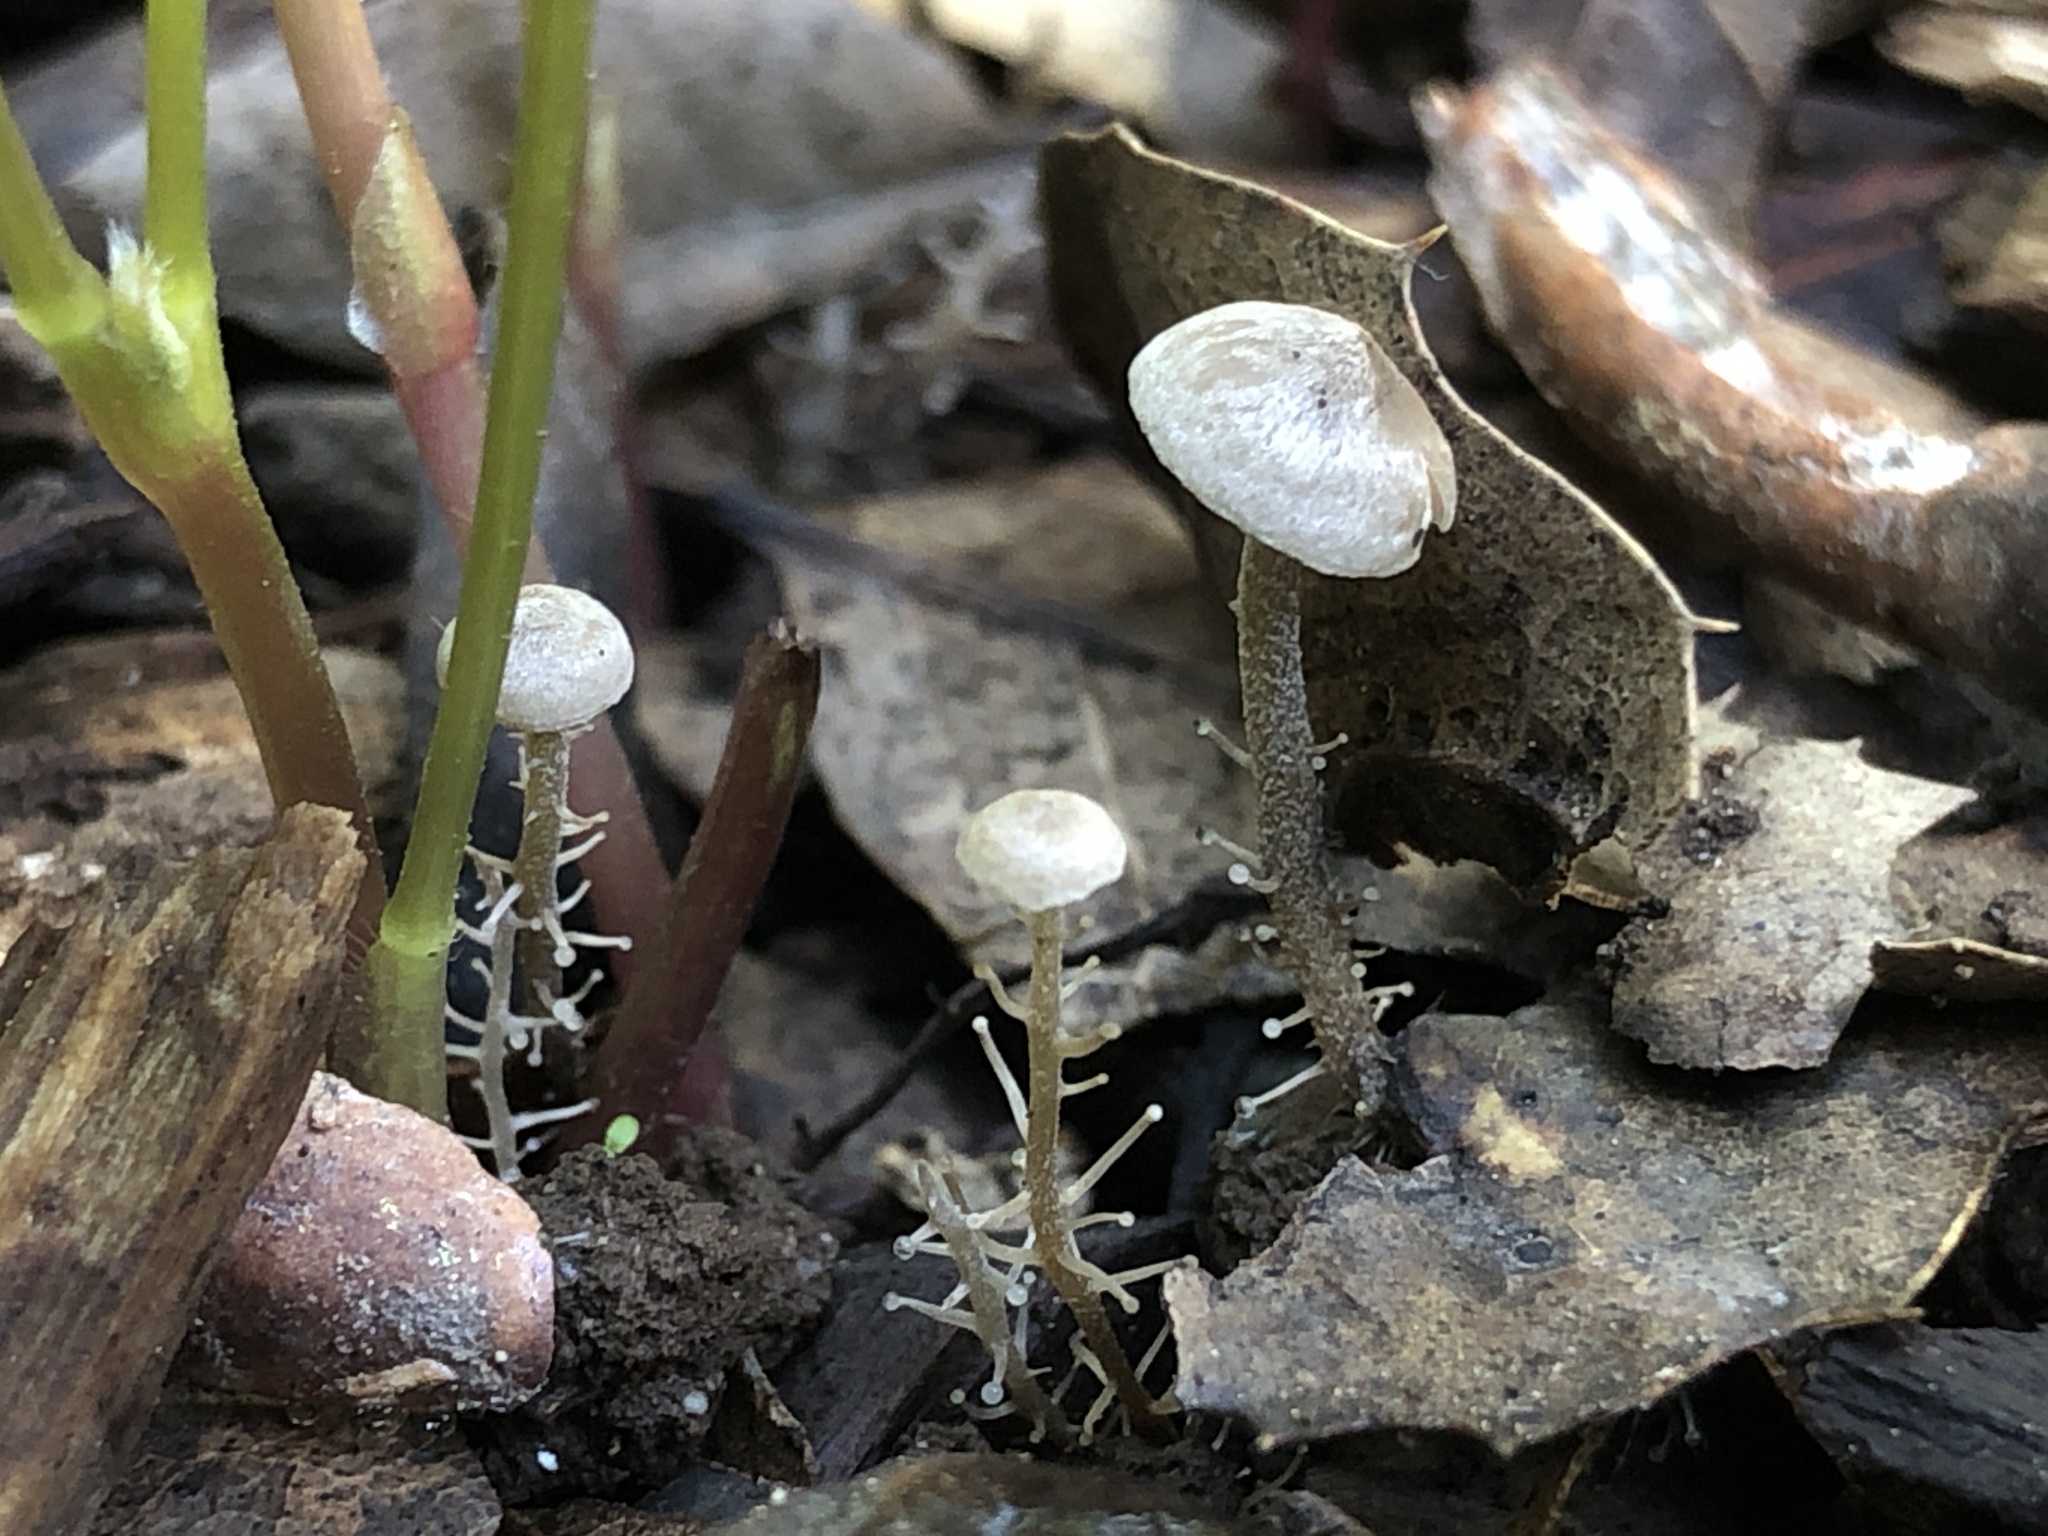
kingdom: Fungi
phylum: Basidiomycota
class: Agaricomycetes
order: Agaricales
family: Tricholomataceae
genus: Dendrocollybia
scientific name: Dendrocollybia racemosa
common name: Branched shanklet
